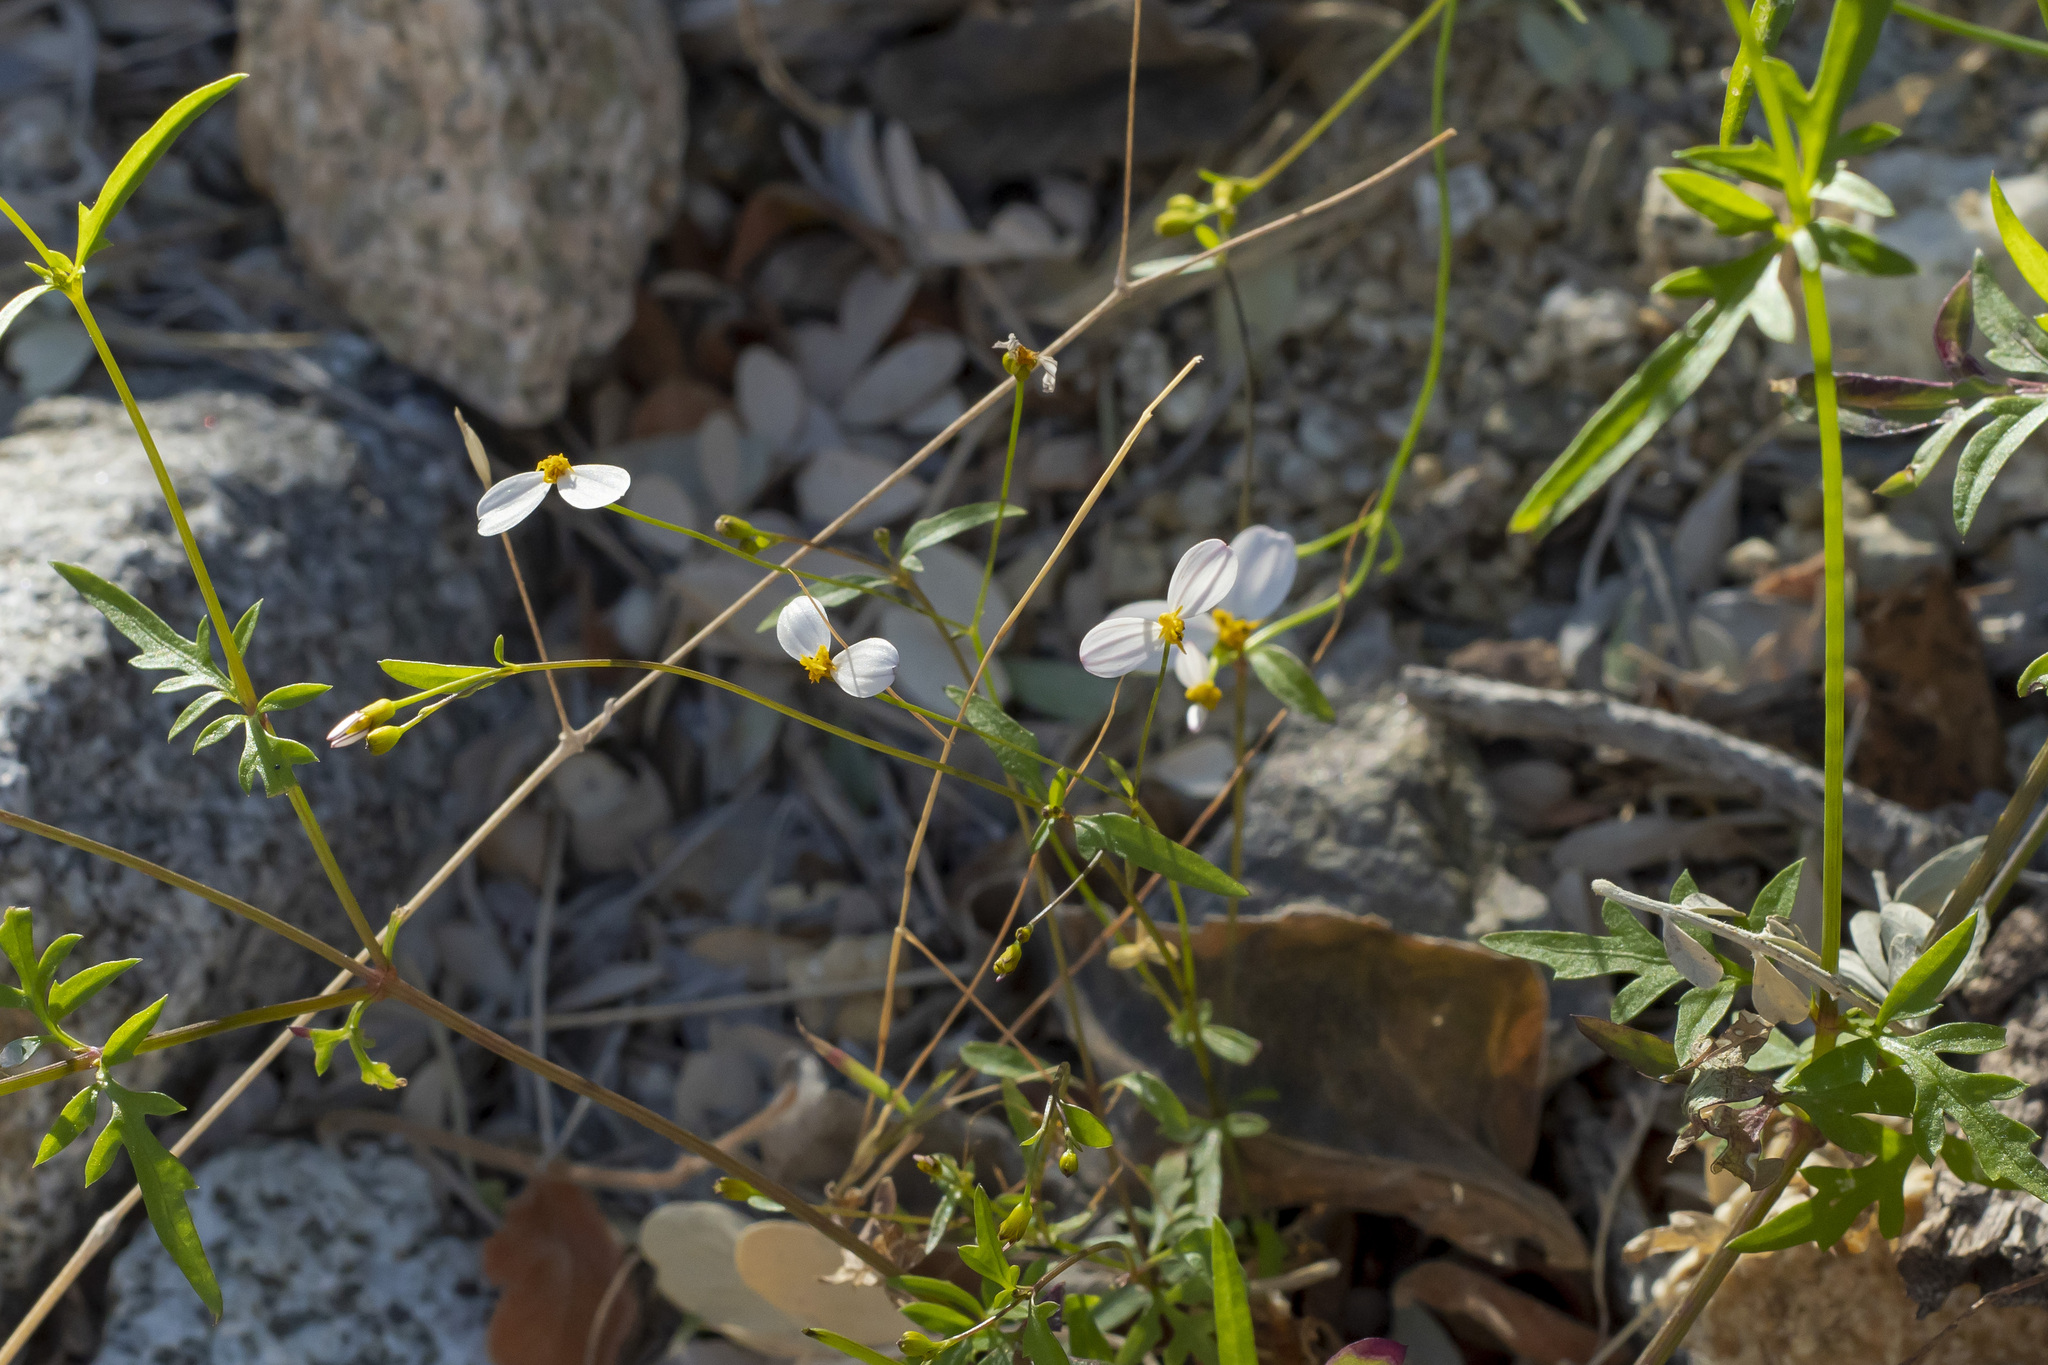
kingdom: Plantae
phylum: Tracheophyta
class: Magnoliopsida
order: Asterales
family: Asteraceae
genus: Coreocarpus
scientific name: Coreocarpus parthenioides
